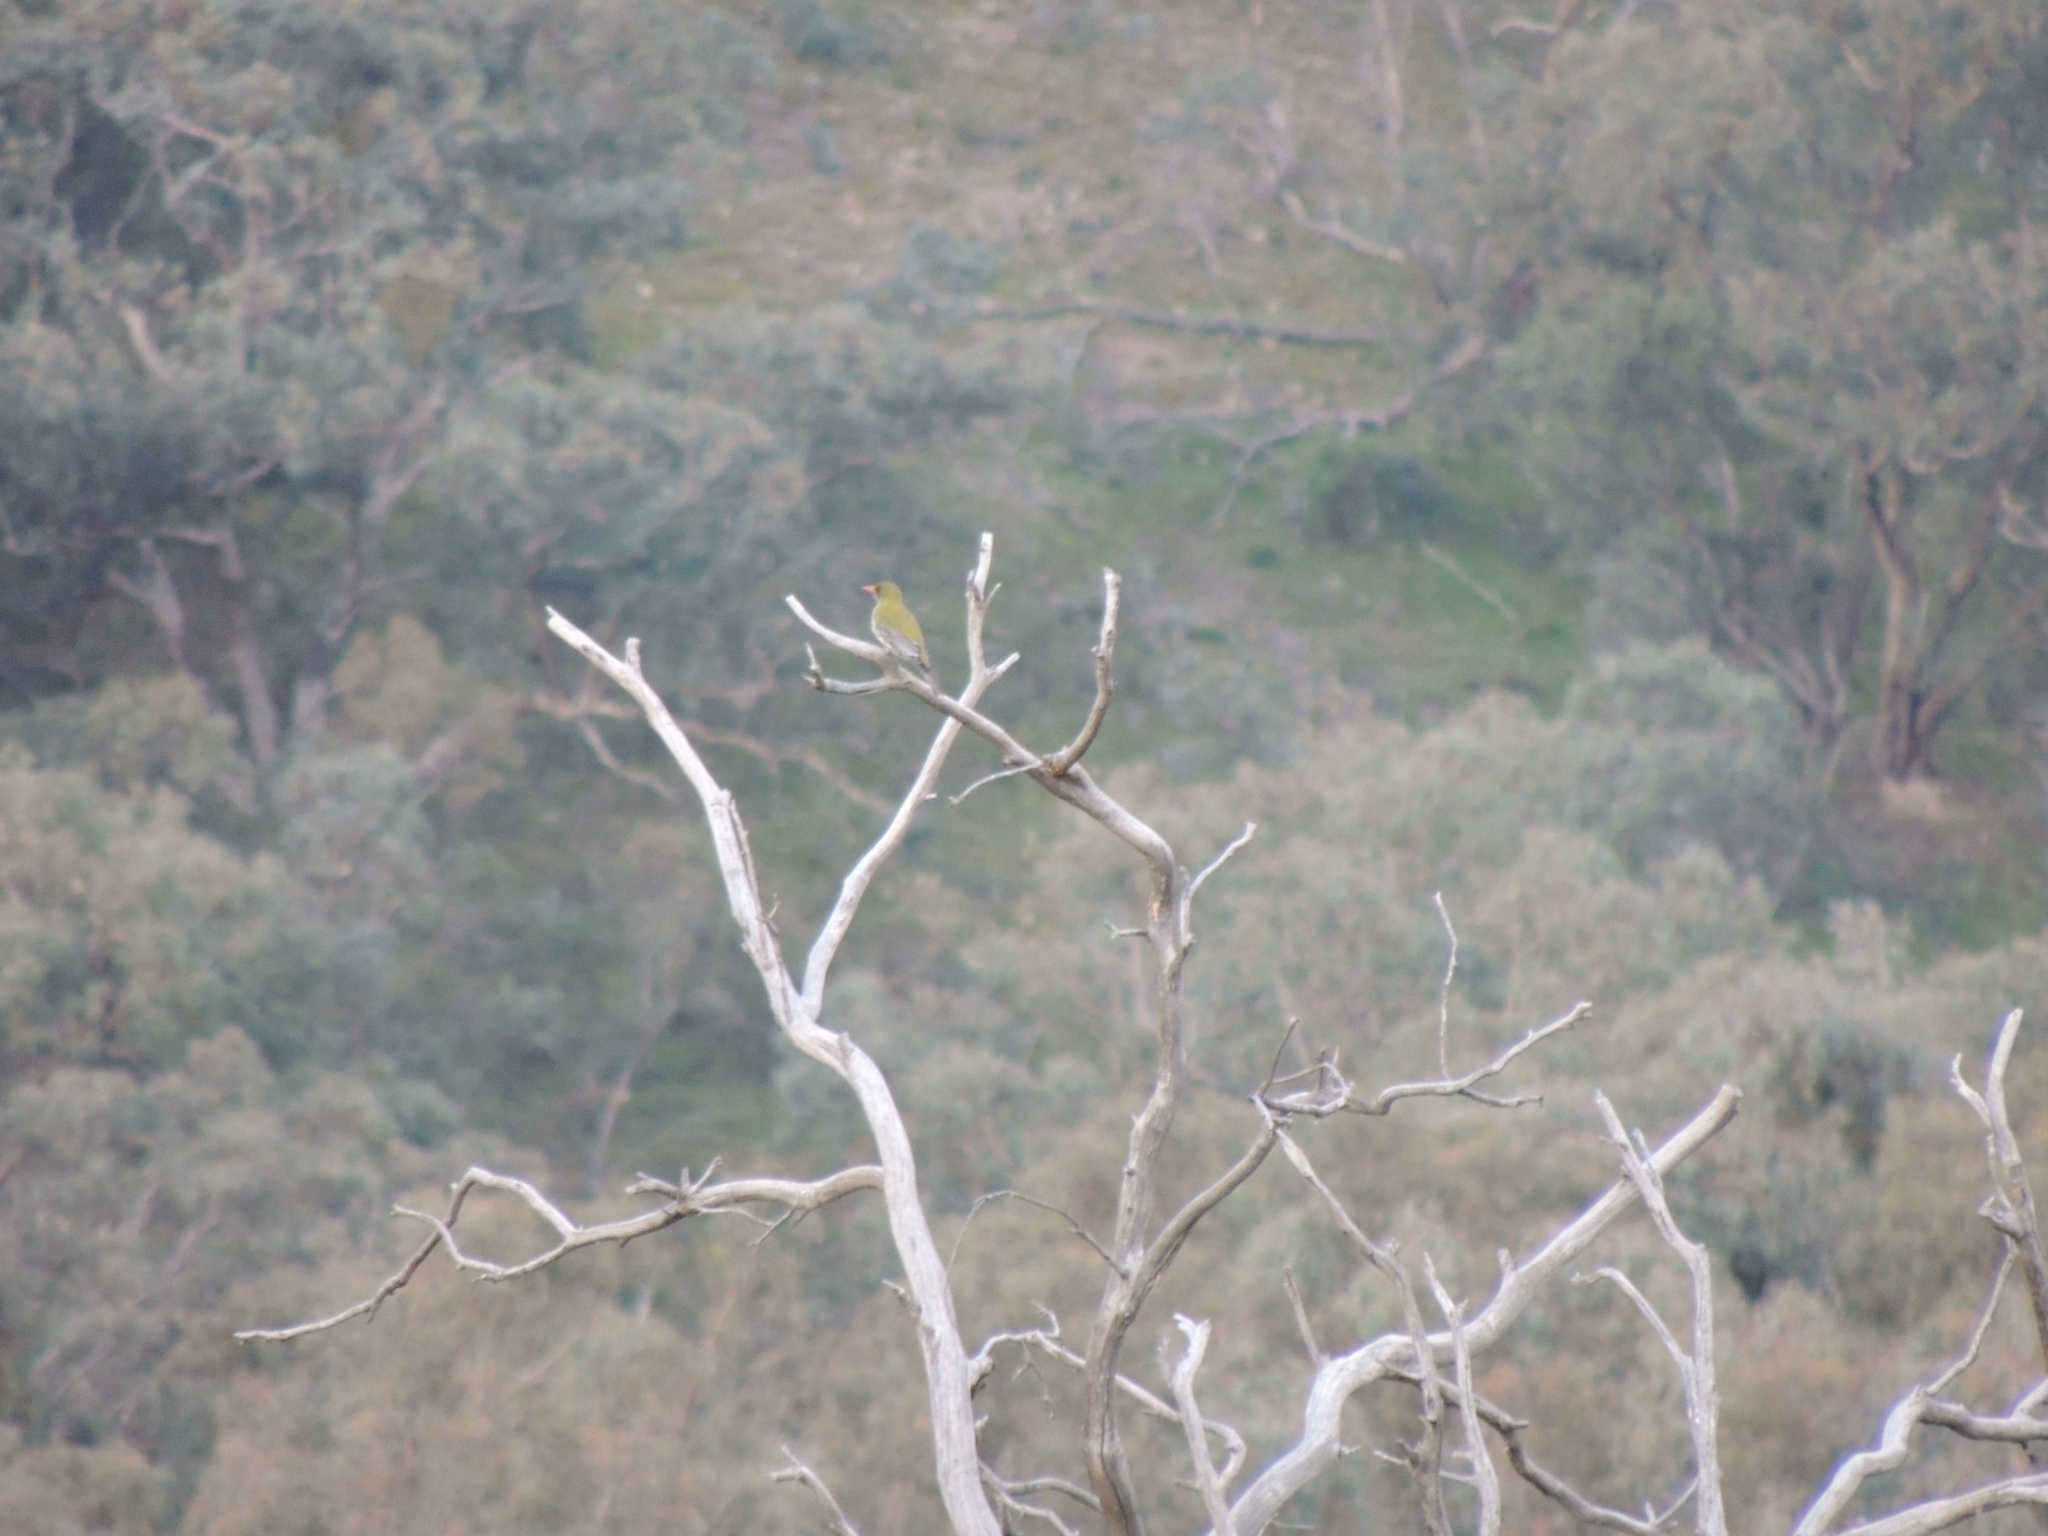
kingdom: Animalia
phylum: Chordata
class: Aves
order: Passeriformes
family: Oriolidae
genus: Oriolus
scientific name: Oriolus sagittatus
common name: Olive-backed oriole
